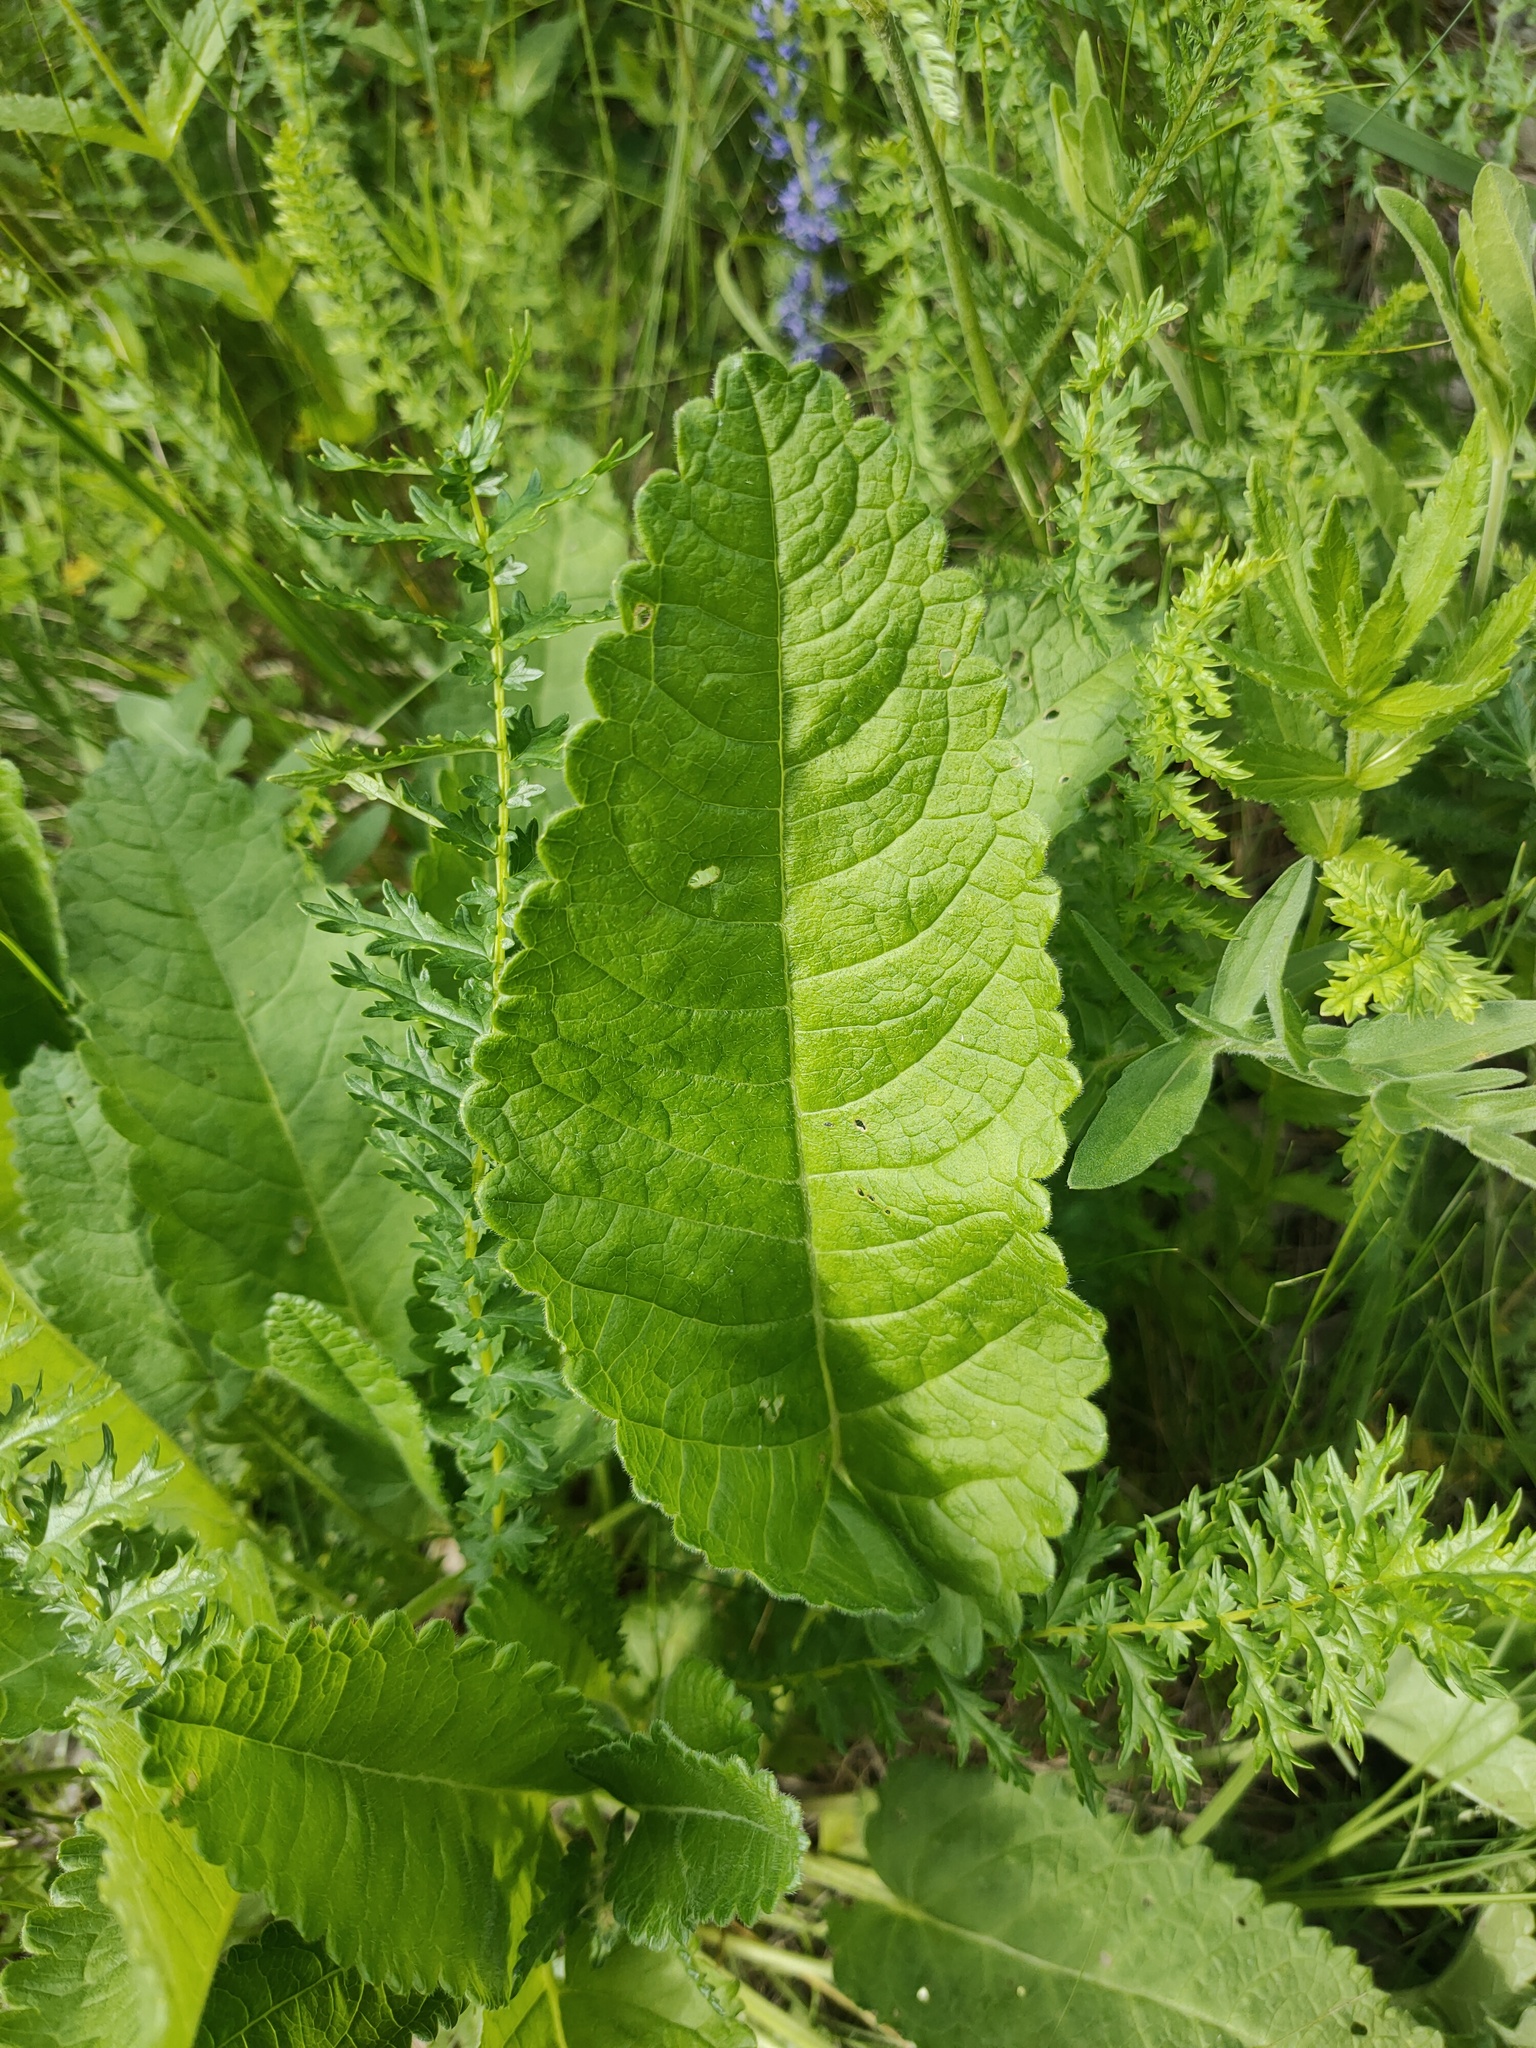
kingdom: Plantae
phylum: Tracheophyta
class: Magnoliopsida
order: Lamiales
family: Lamiaceae
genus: Betonica
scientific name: Betonica officinalis
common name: Bishop's-wort
